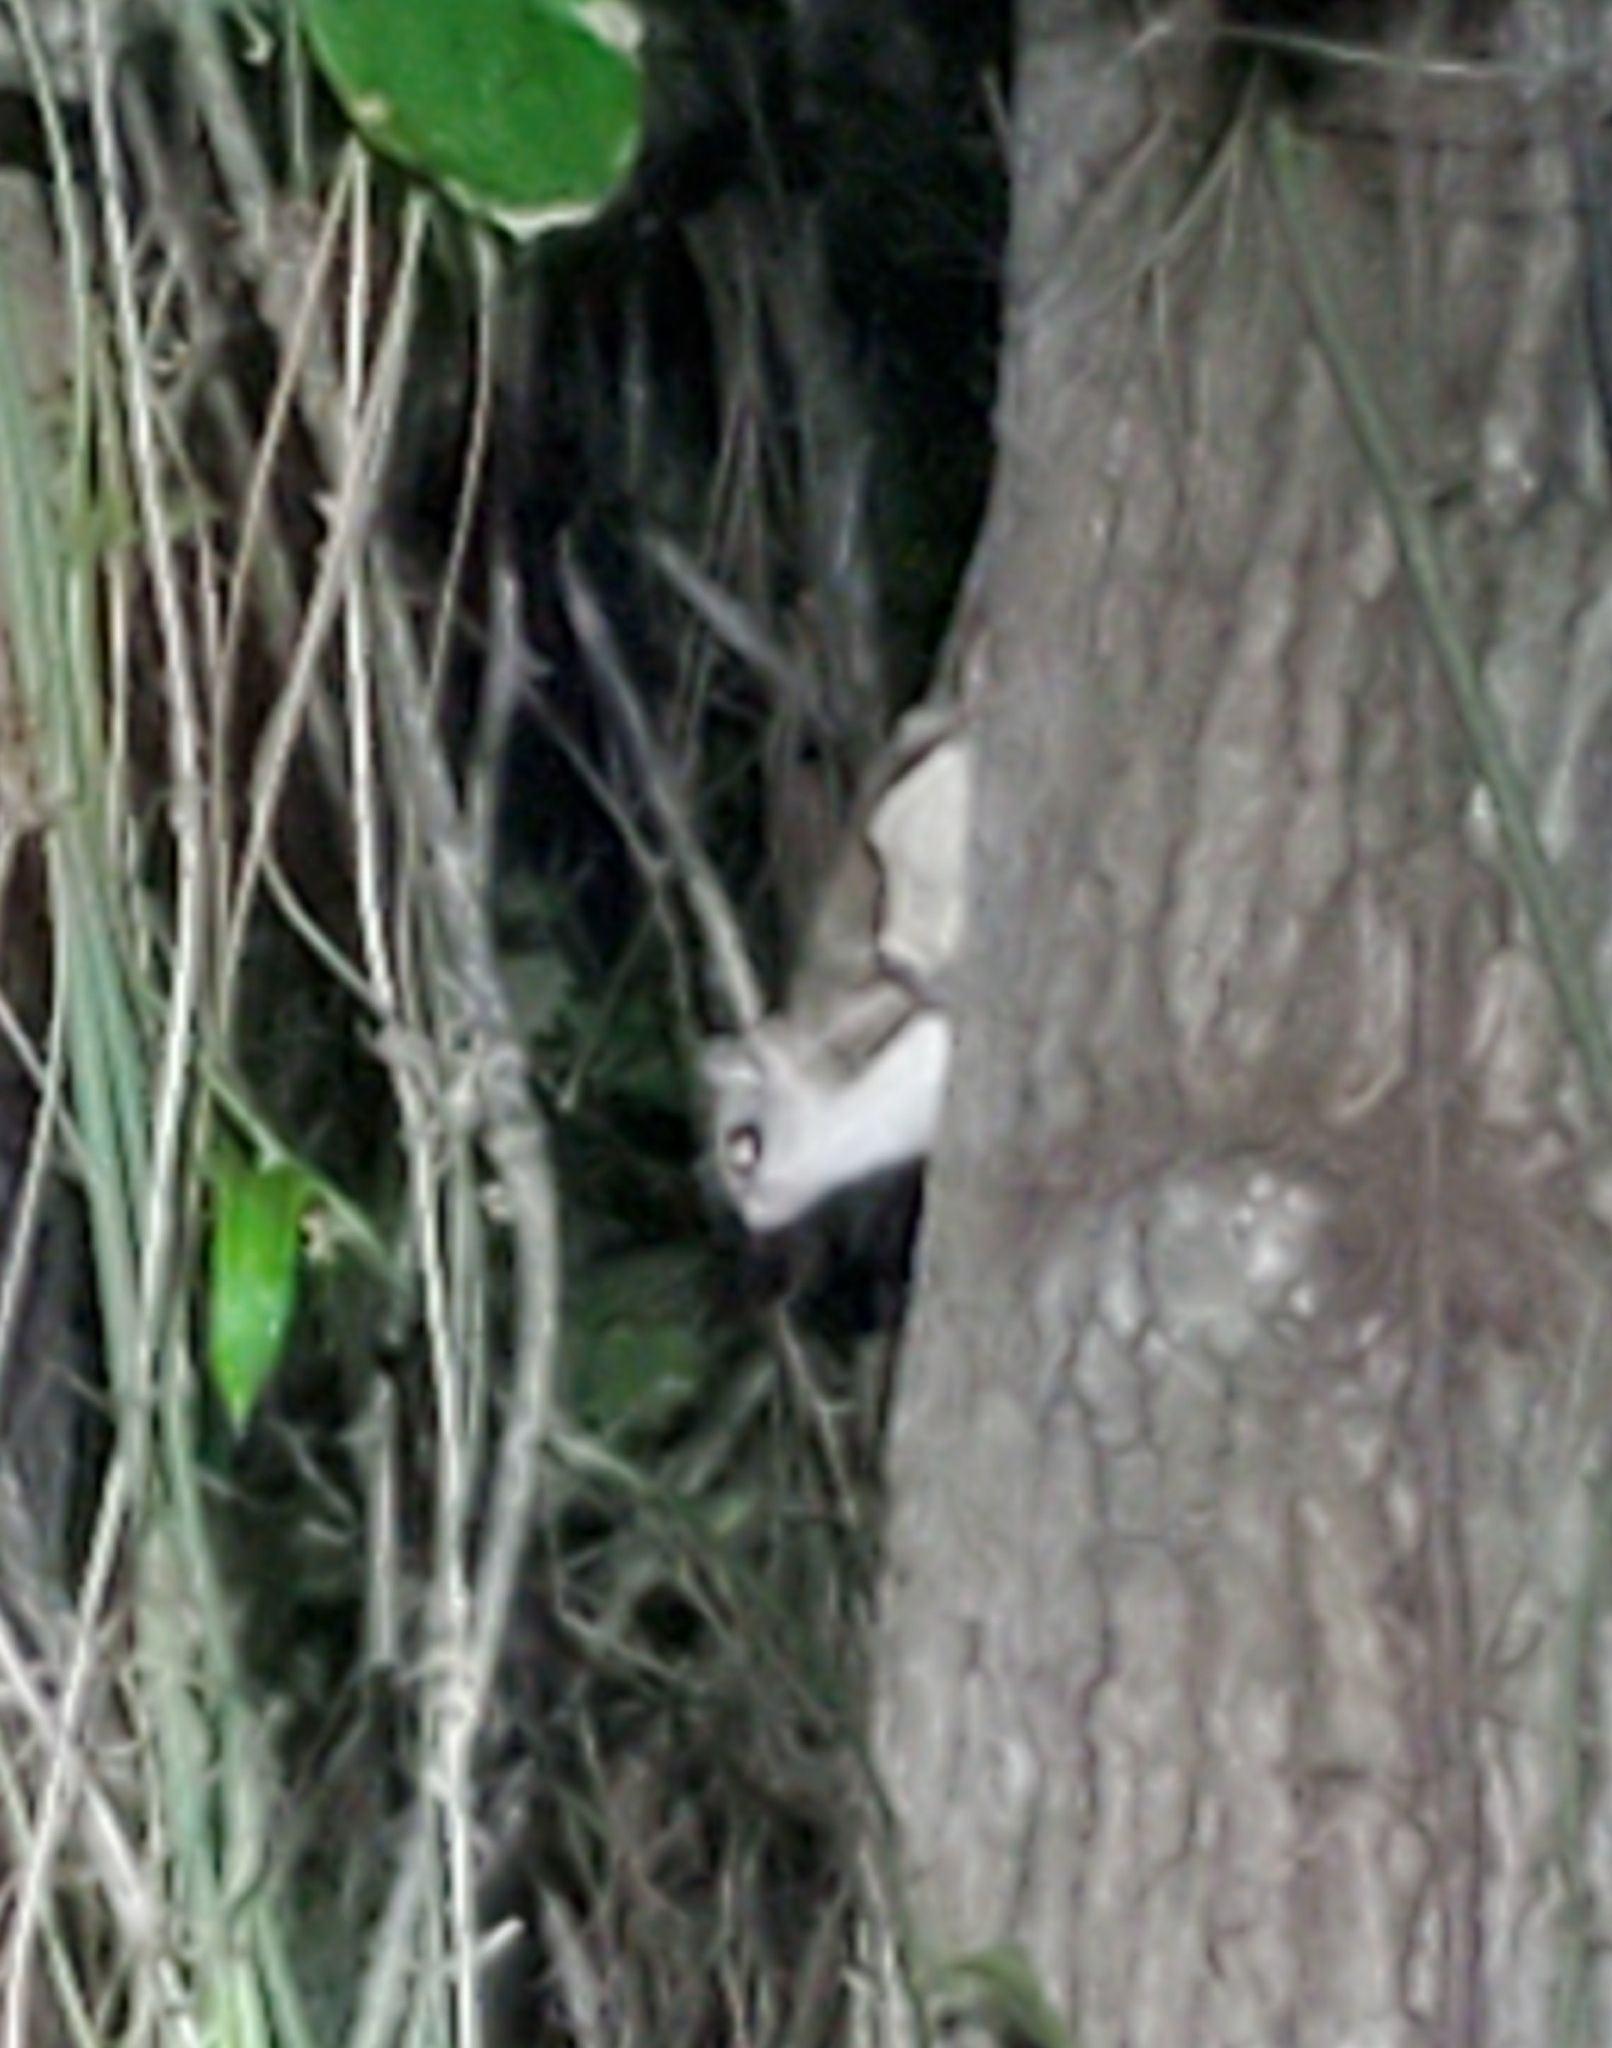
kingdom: Animalia
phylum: Chordata
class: Mammalia
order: Rodentia
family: Sciuridae
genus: Glaucomys
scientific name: Glaucomys volans
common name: Southern flying squirrel
